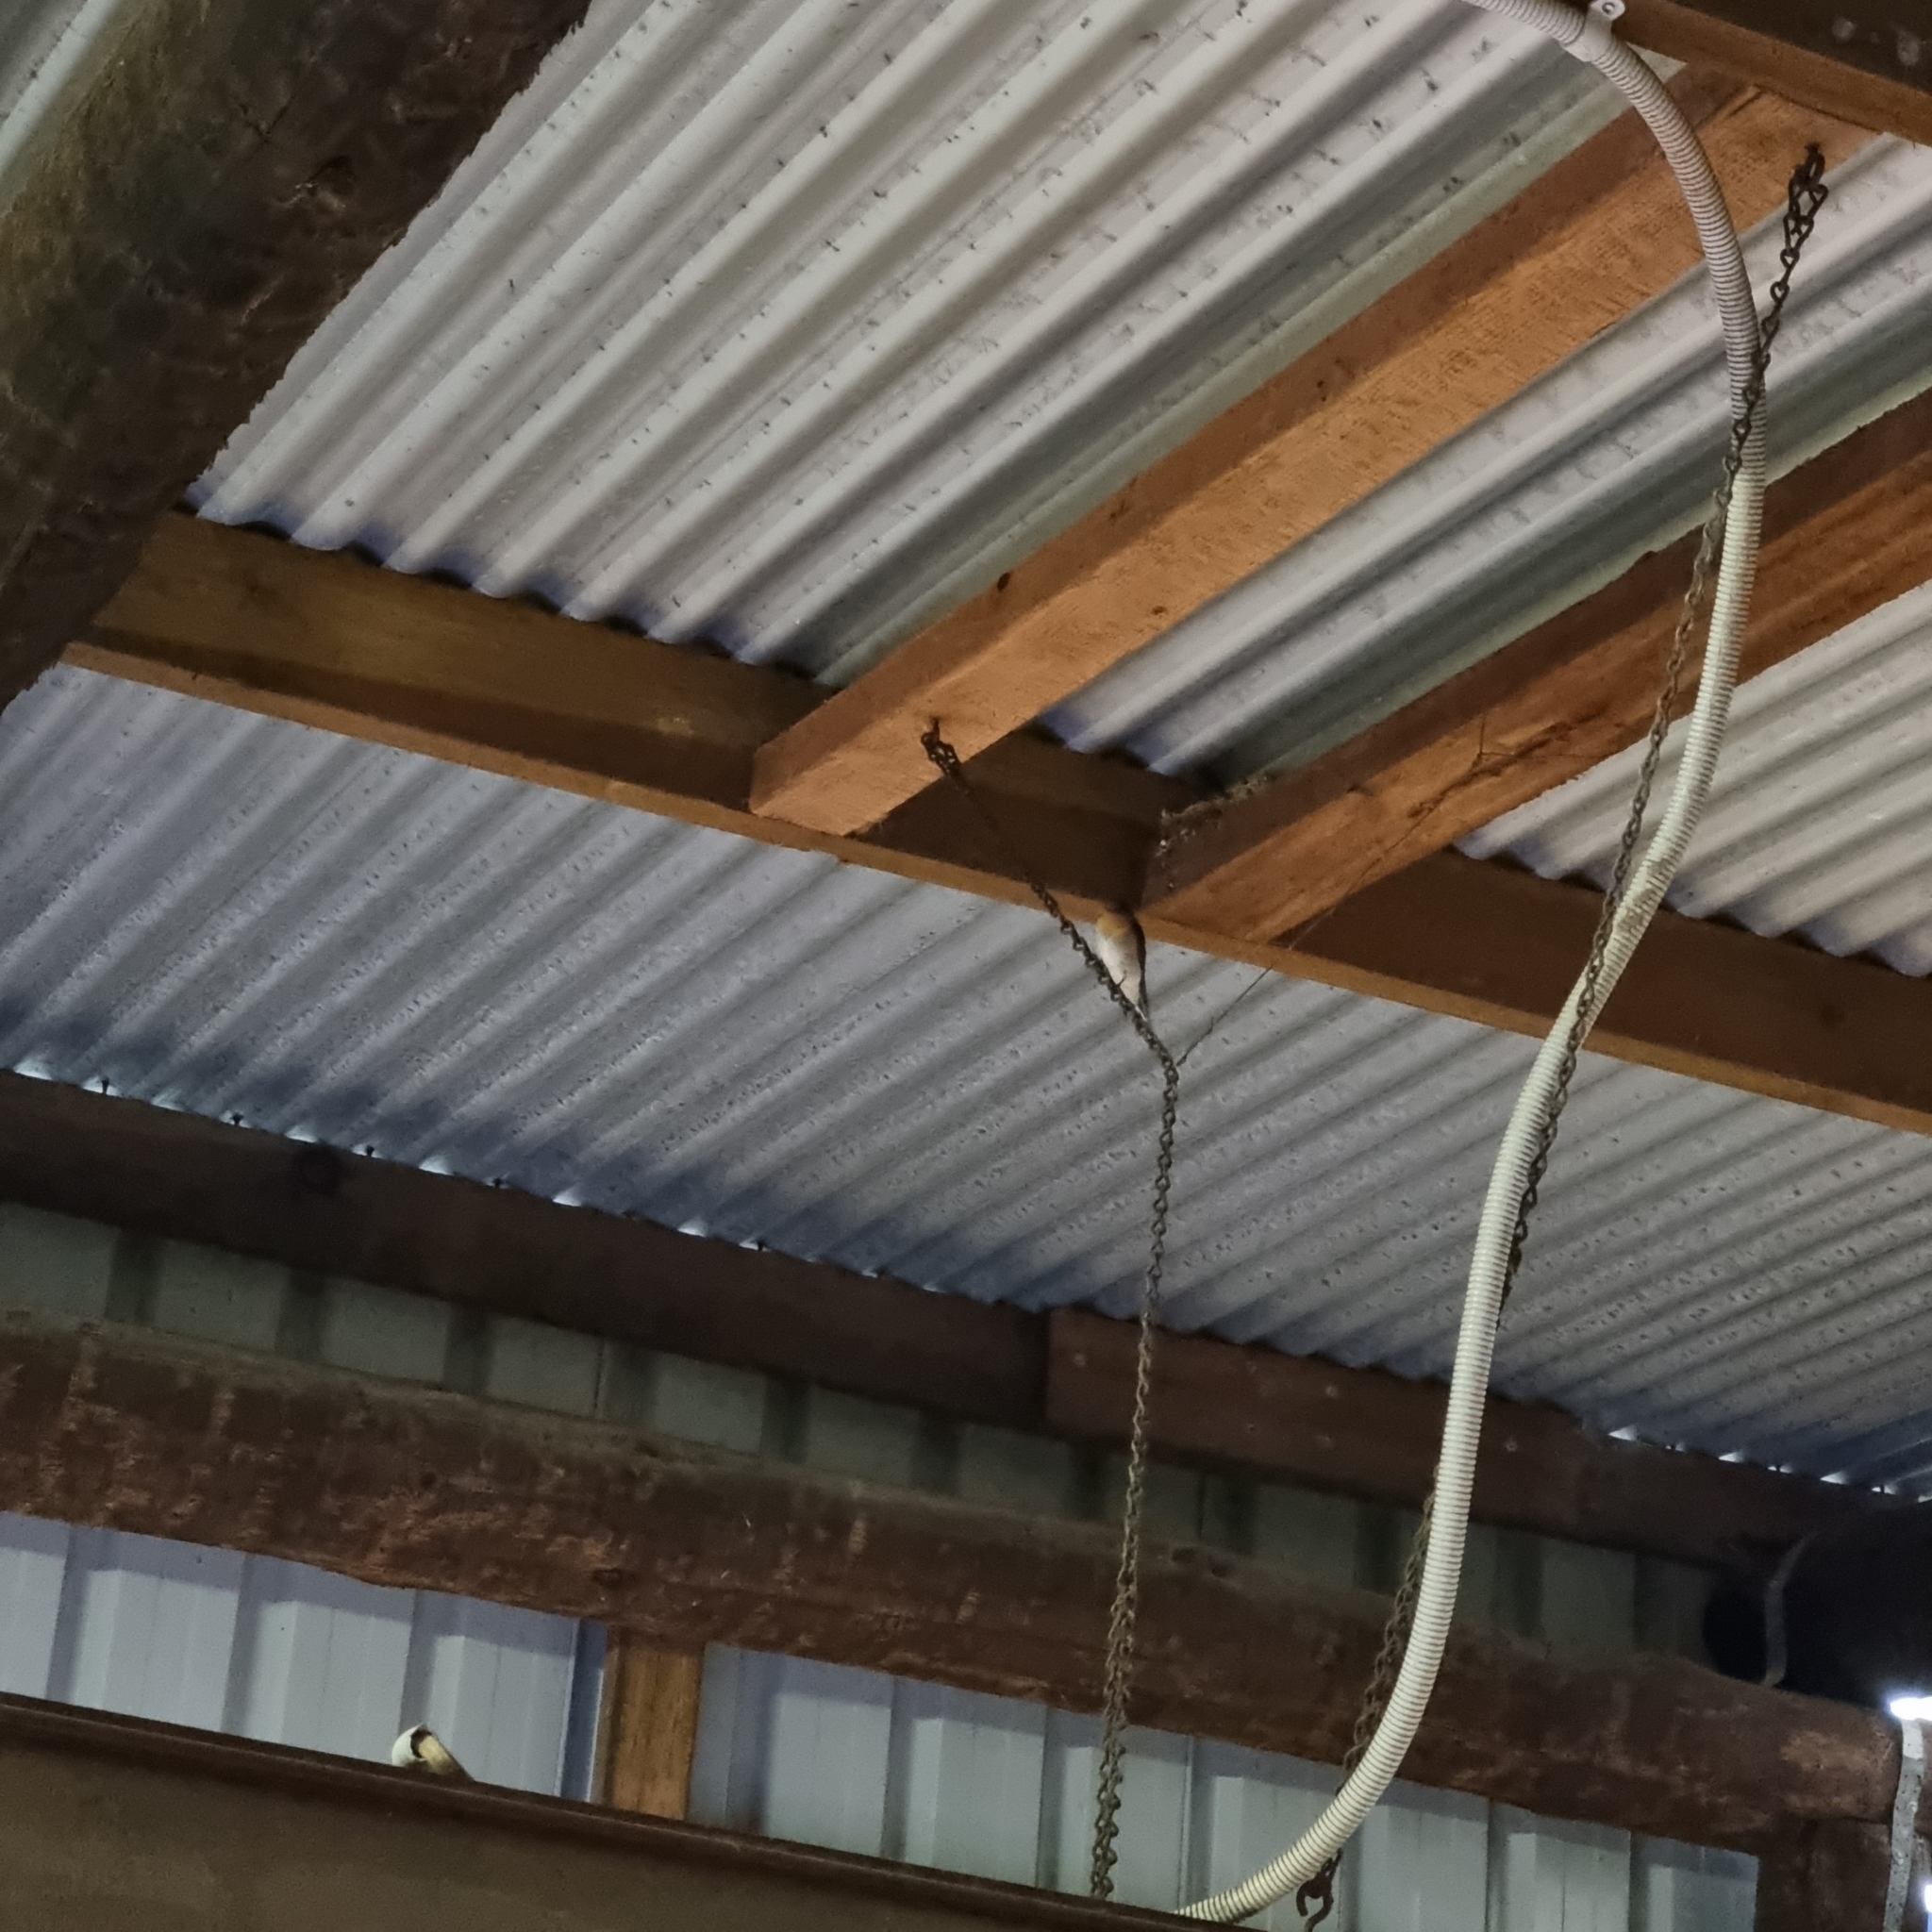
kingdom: Animalia
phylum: Chordata
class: Aves
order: Passeriformes
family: Hirundinidae
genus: Hirundo
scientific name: Hirundo neoxena
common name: Welcome swallow
